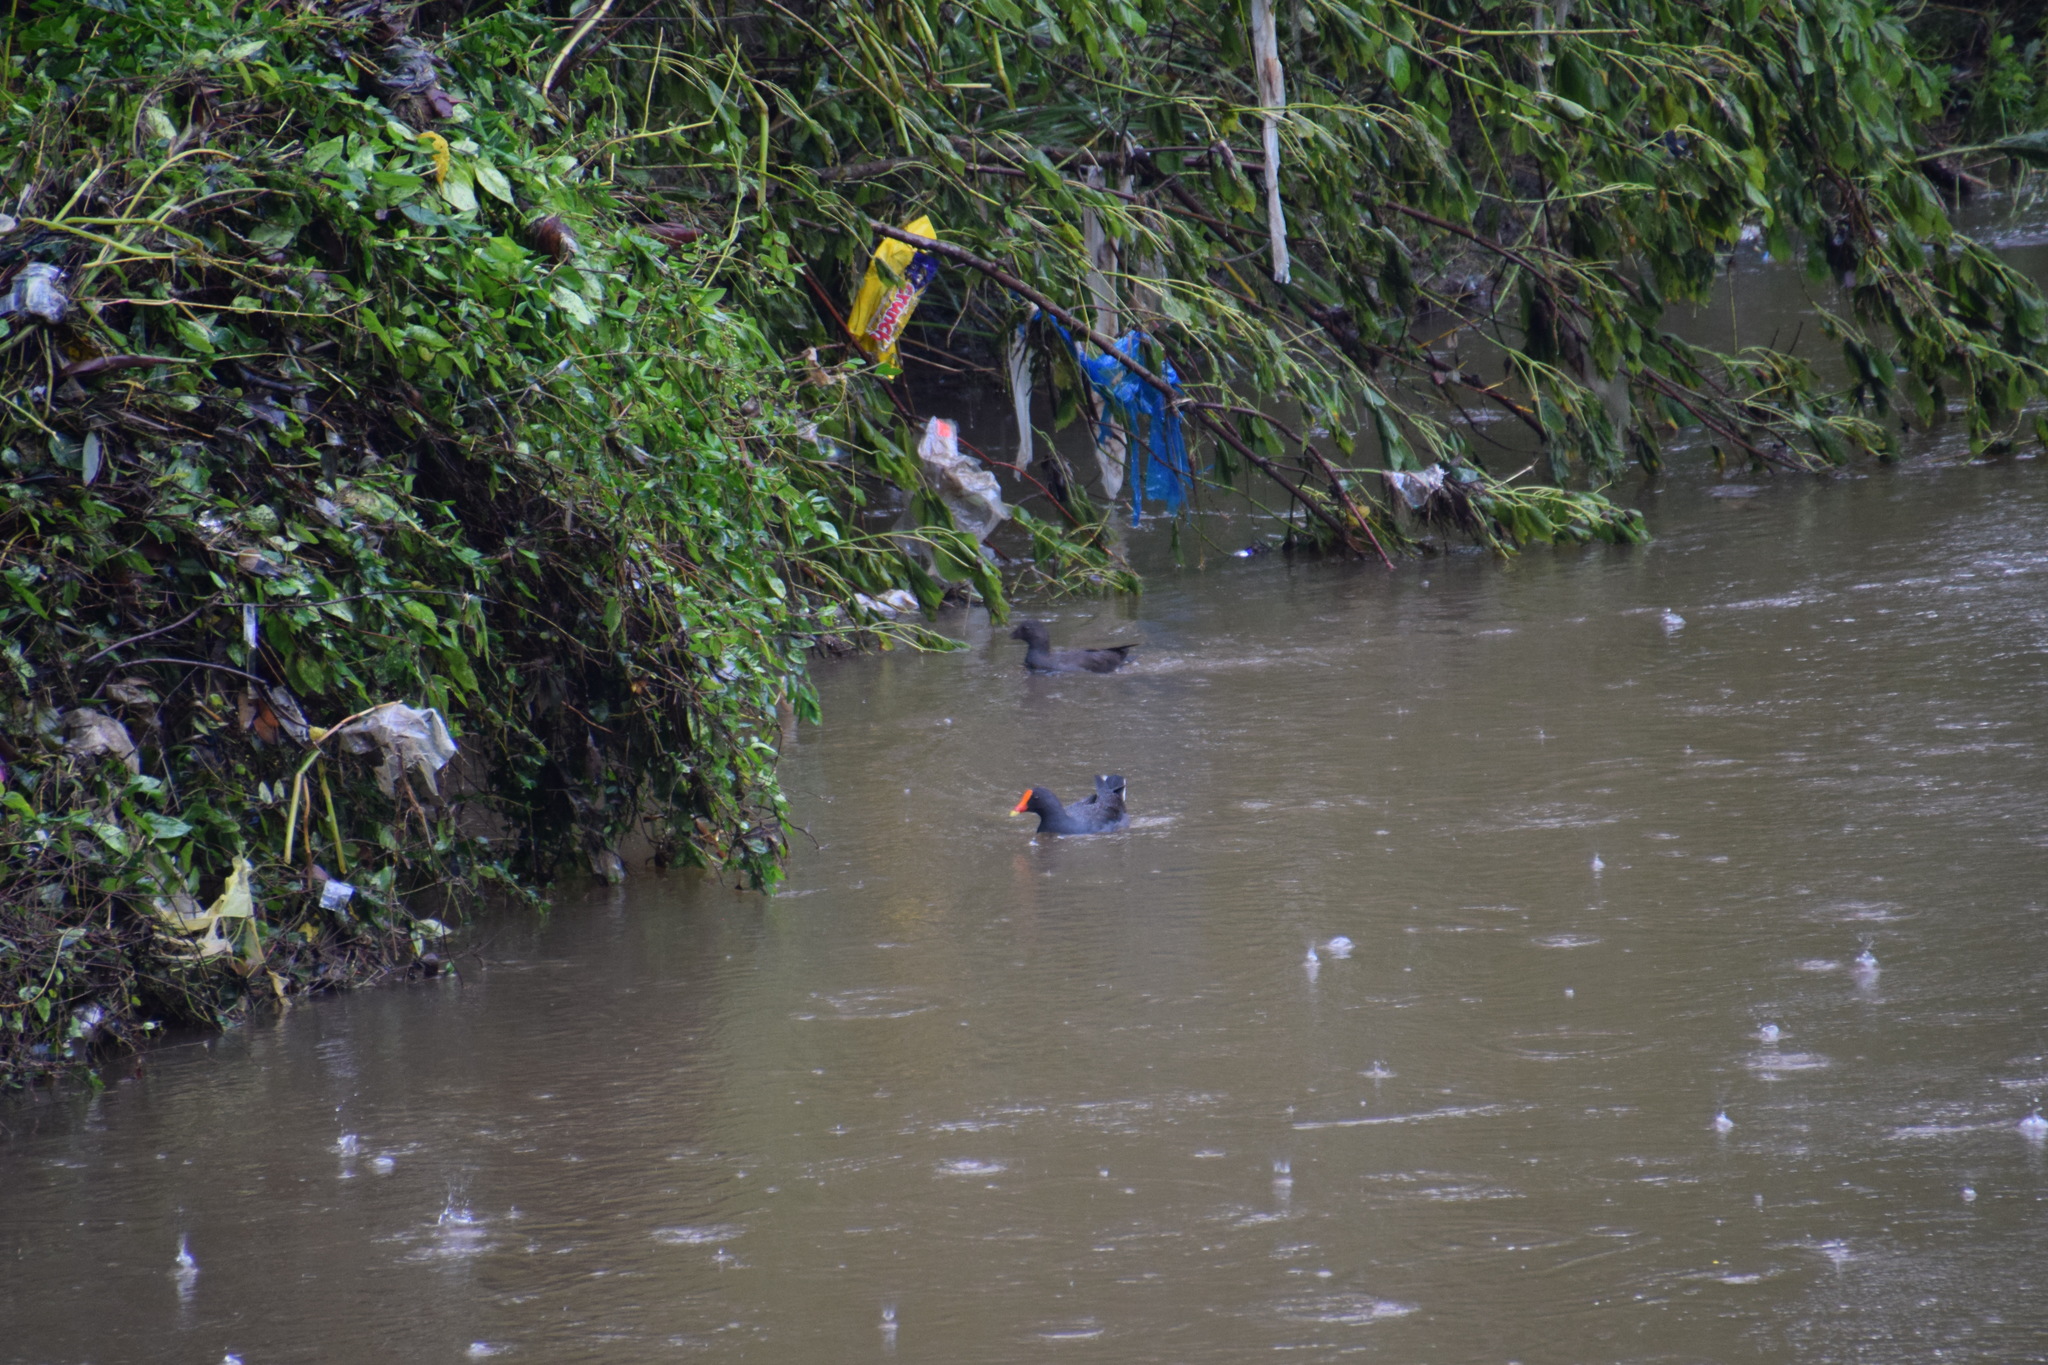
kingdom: Animalia
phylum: Chordata
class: Aves
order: Gruiformes
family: Rallidae
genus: Gallinula
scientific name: Gallinula tenebrosa
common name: Dusky moorhen
